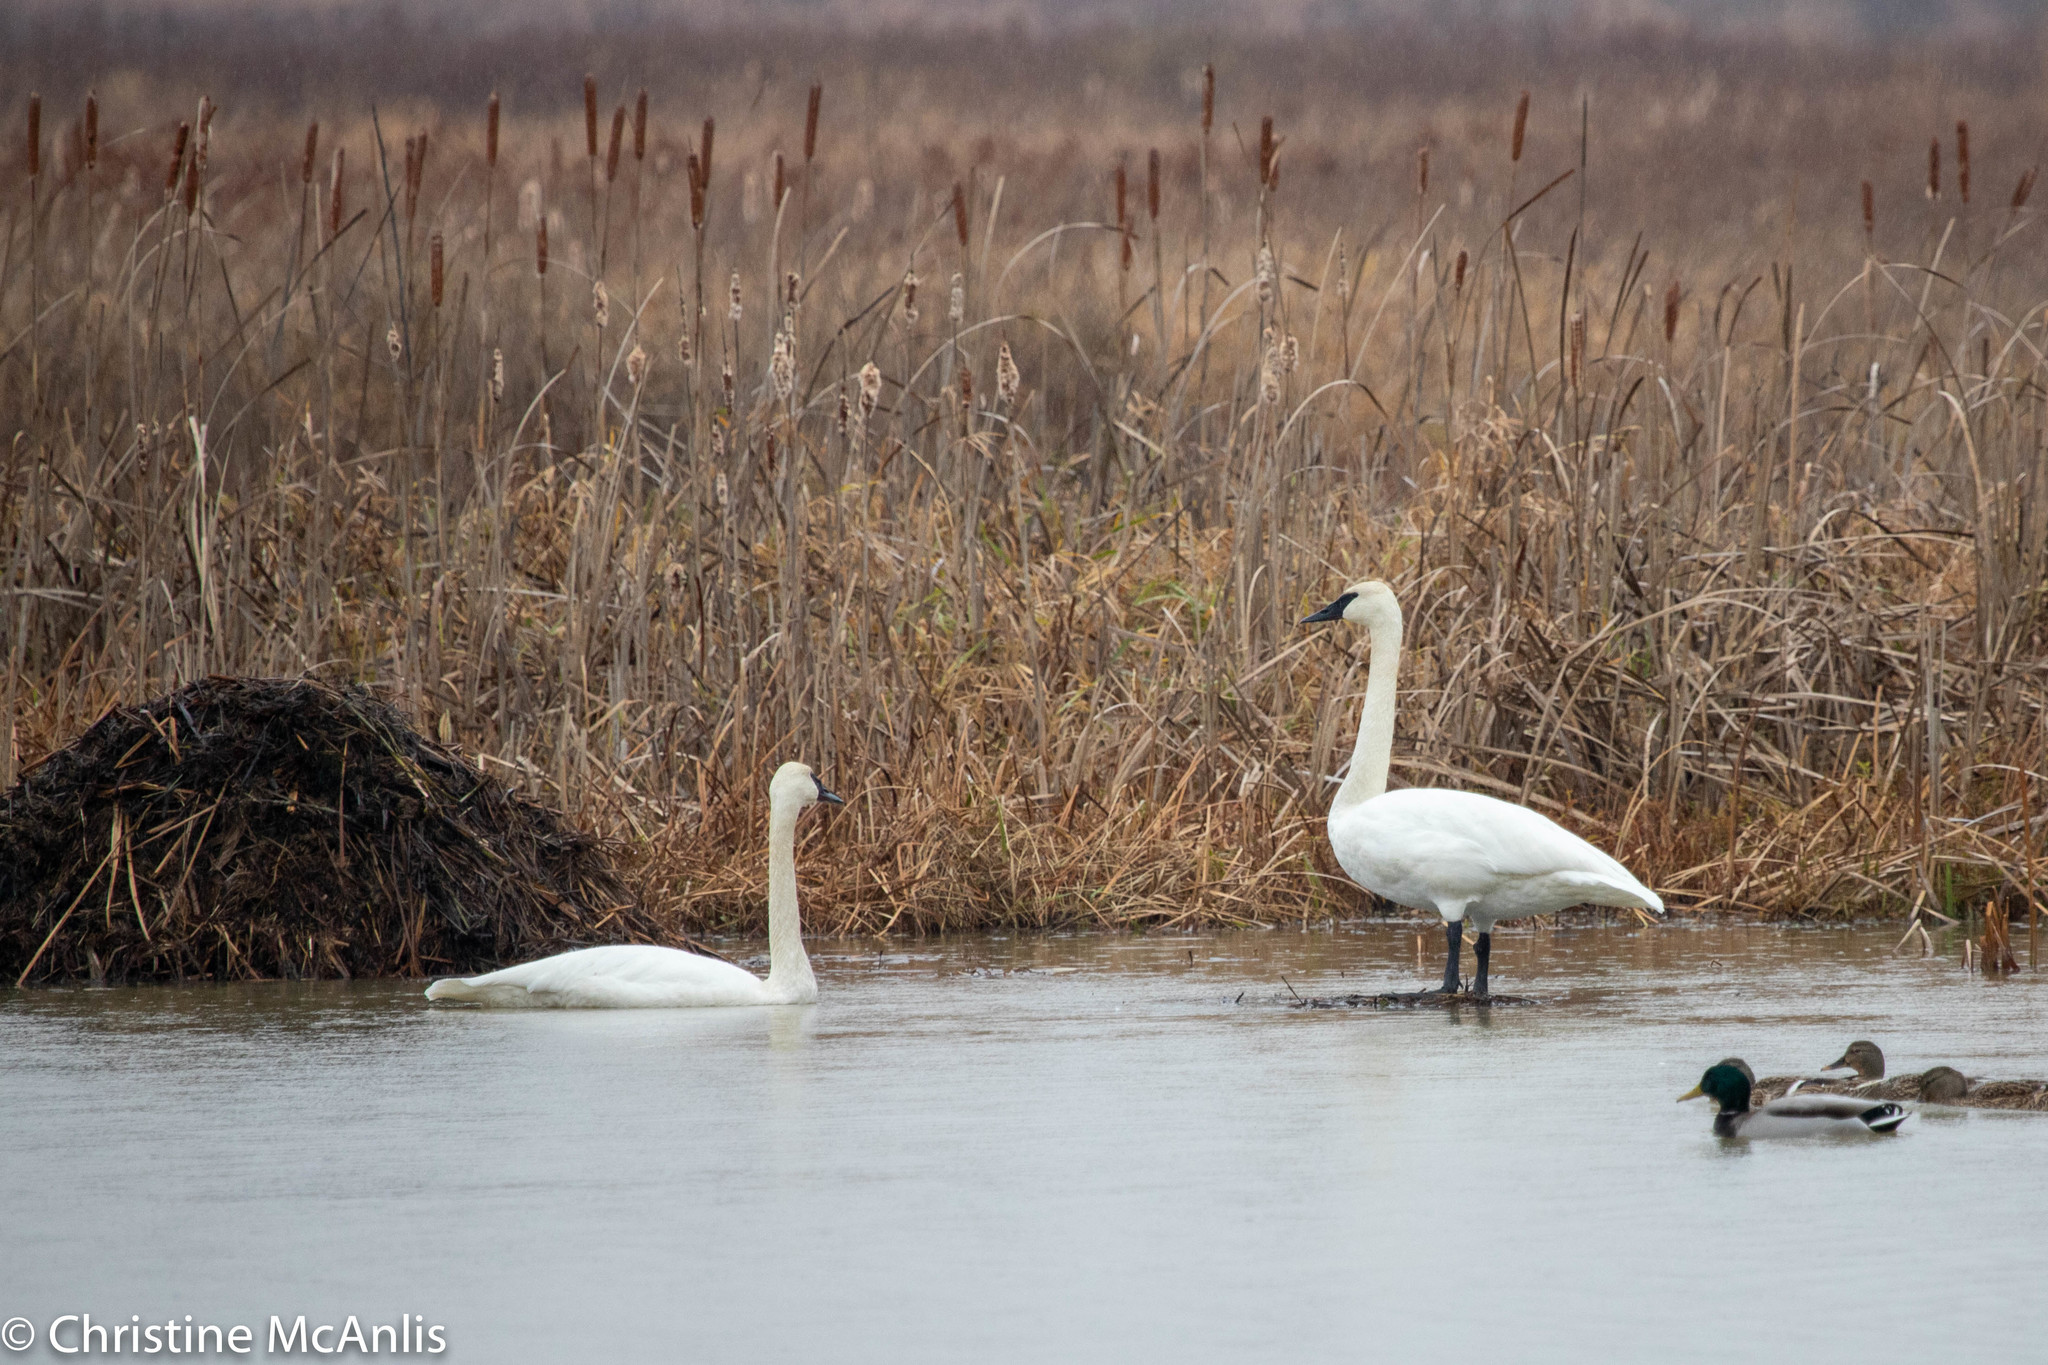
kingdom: Animalia
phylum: Chordata
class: Aves
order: Anseriformes
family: Anatidae
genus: Cygnus
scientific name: Cygnus buccinator
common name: Trumpeter swan
